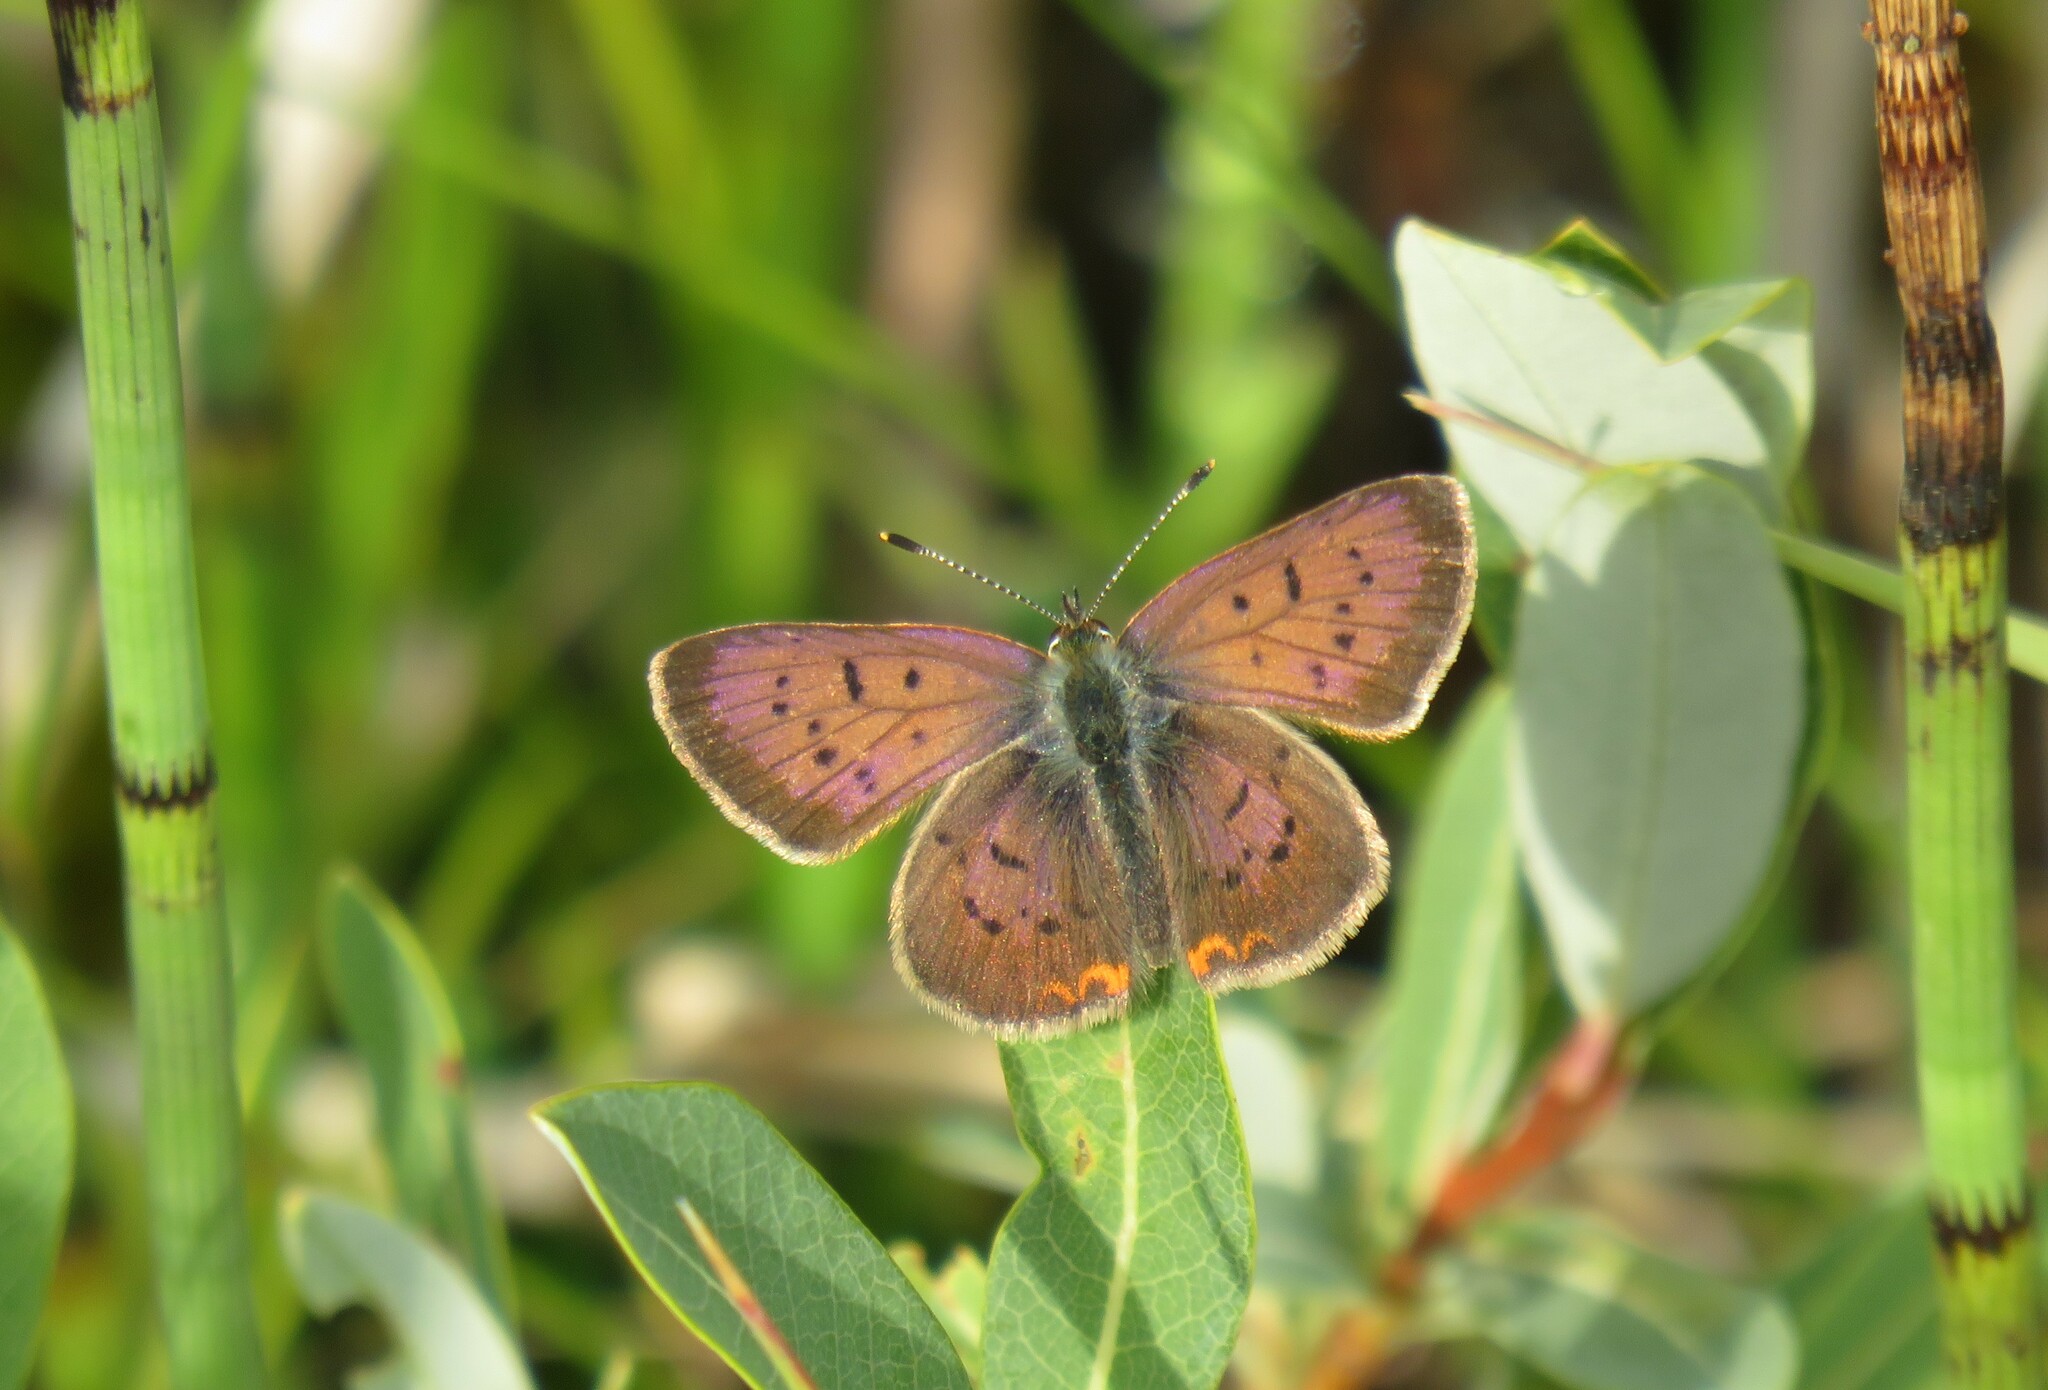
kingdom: Animalia
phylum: Arthropoda
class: Insecta
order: Lepidoptera
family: Lycaenidae
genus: Tharsalea
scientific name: Tharsalea dorcas
